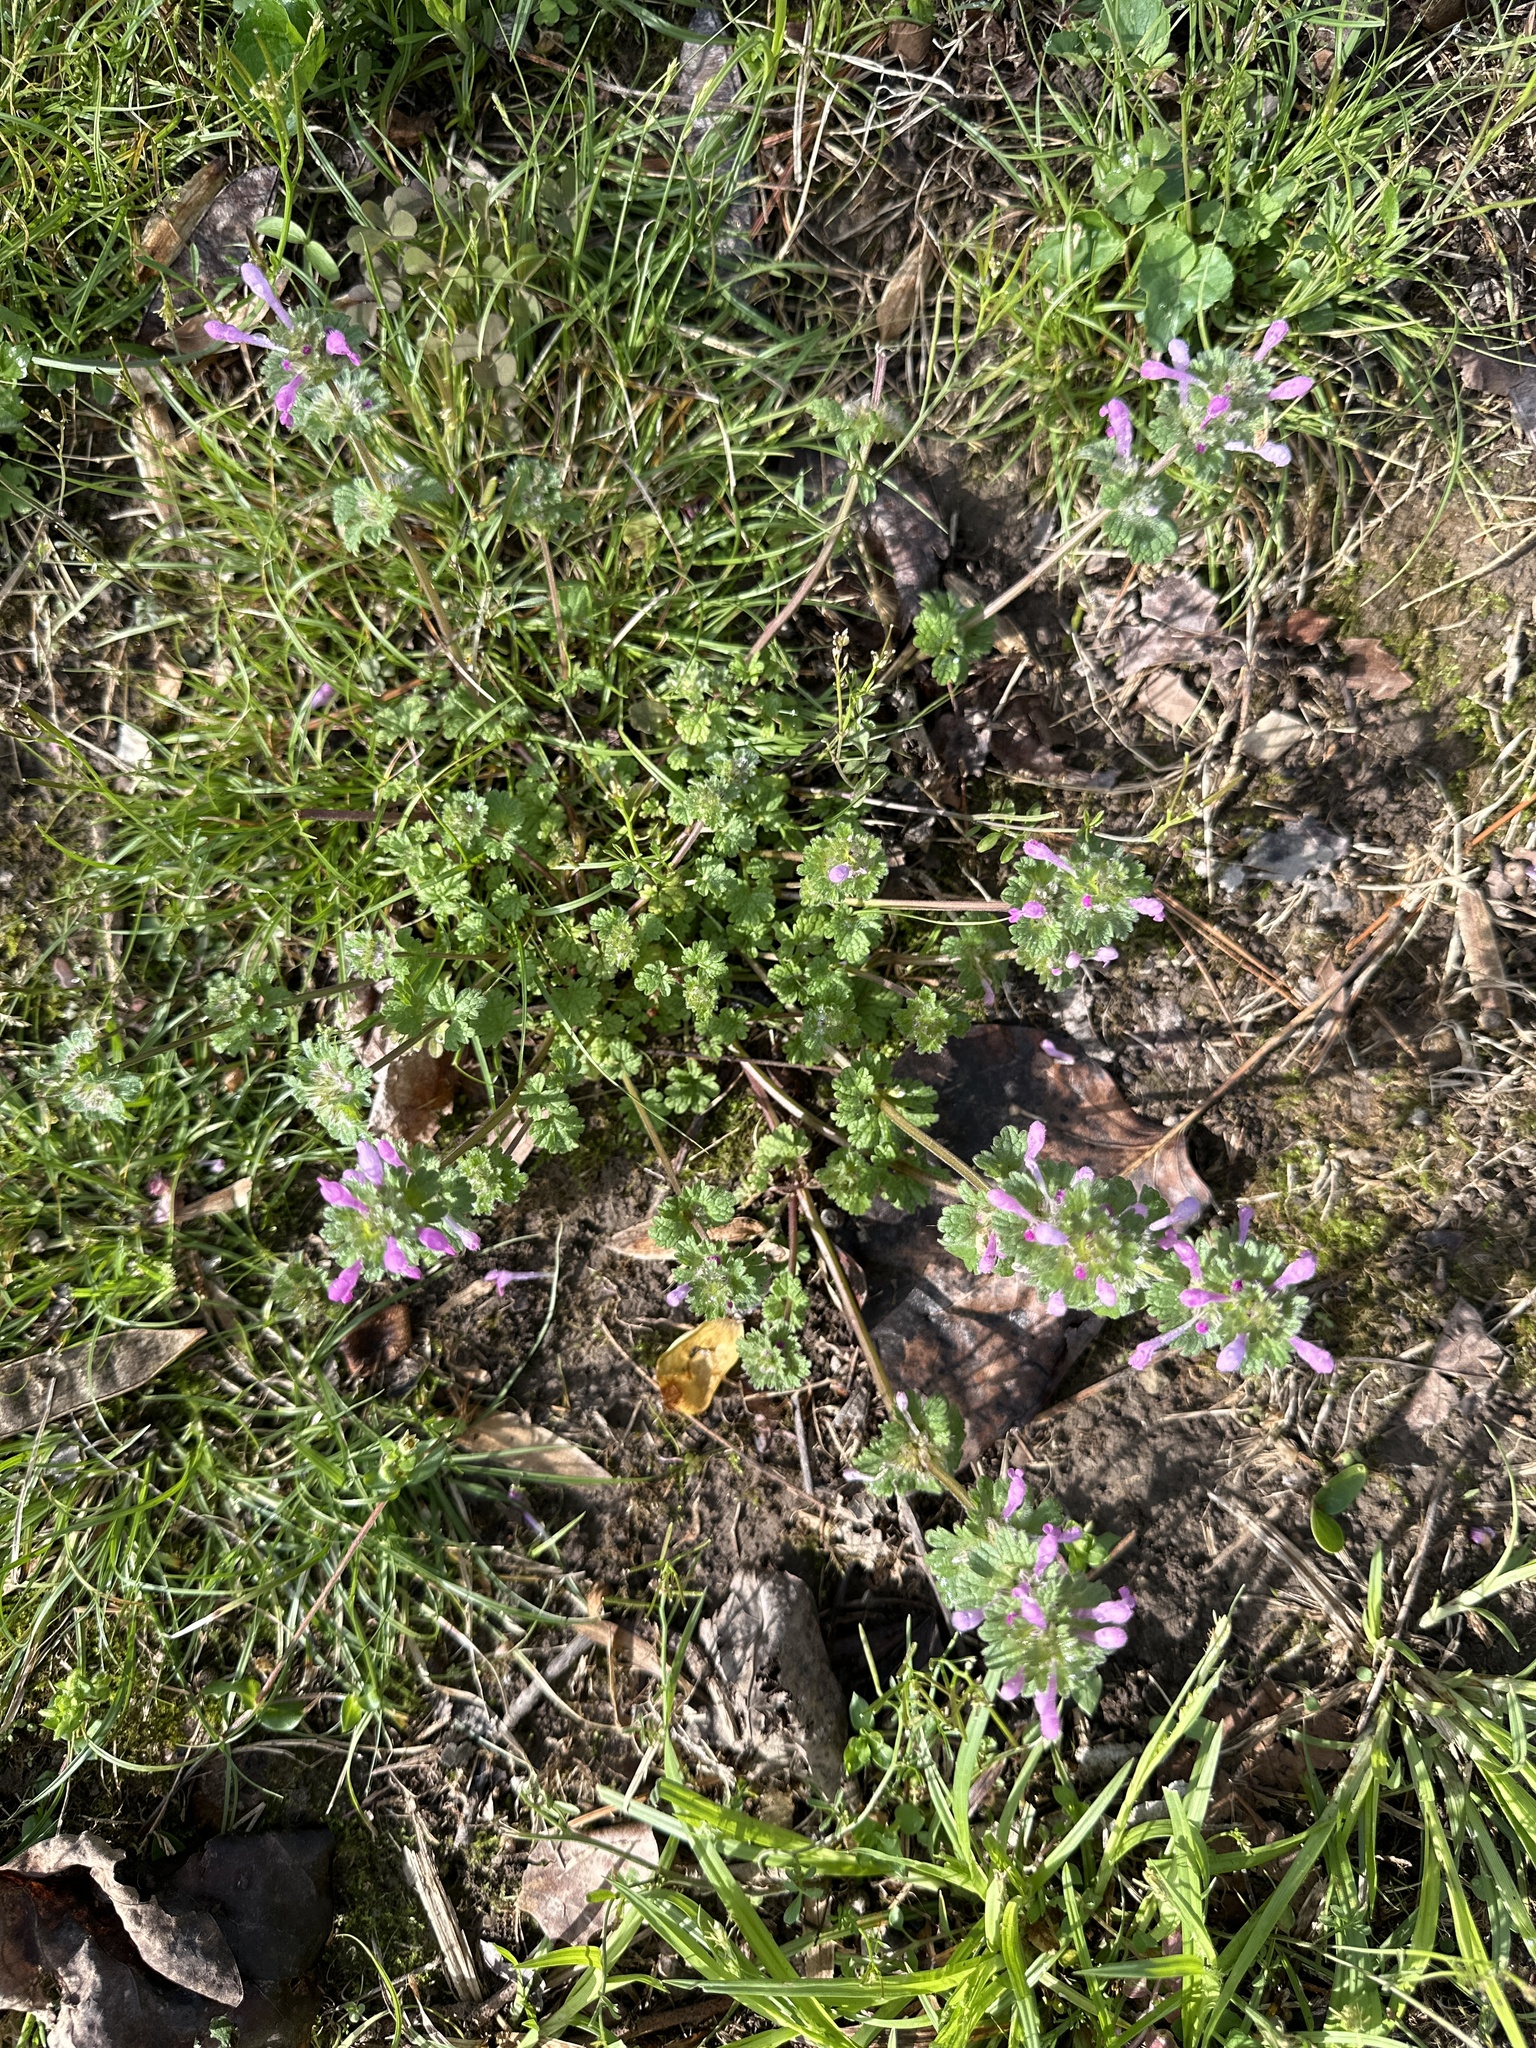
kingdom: Plantae
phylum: Tracheophyta
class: Magnoliopsida
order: Lamiales
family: Lamiaceae
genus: Lamium
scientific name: Lamium amplexicaule
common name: Henbit dead-nettle
